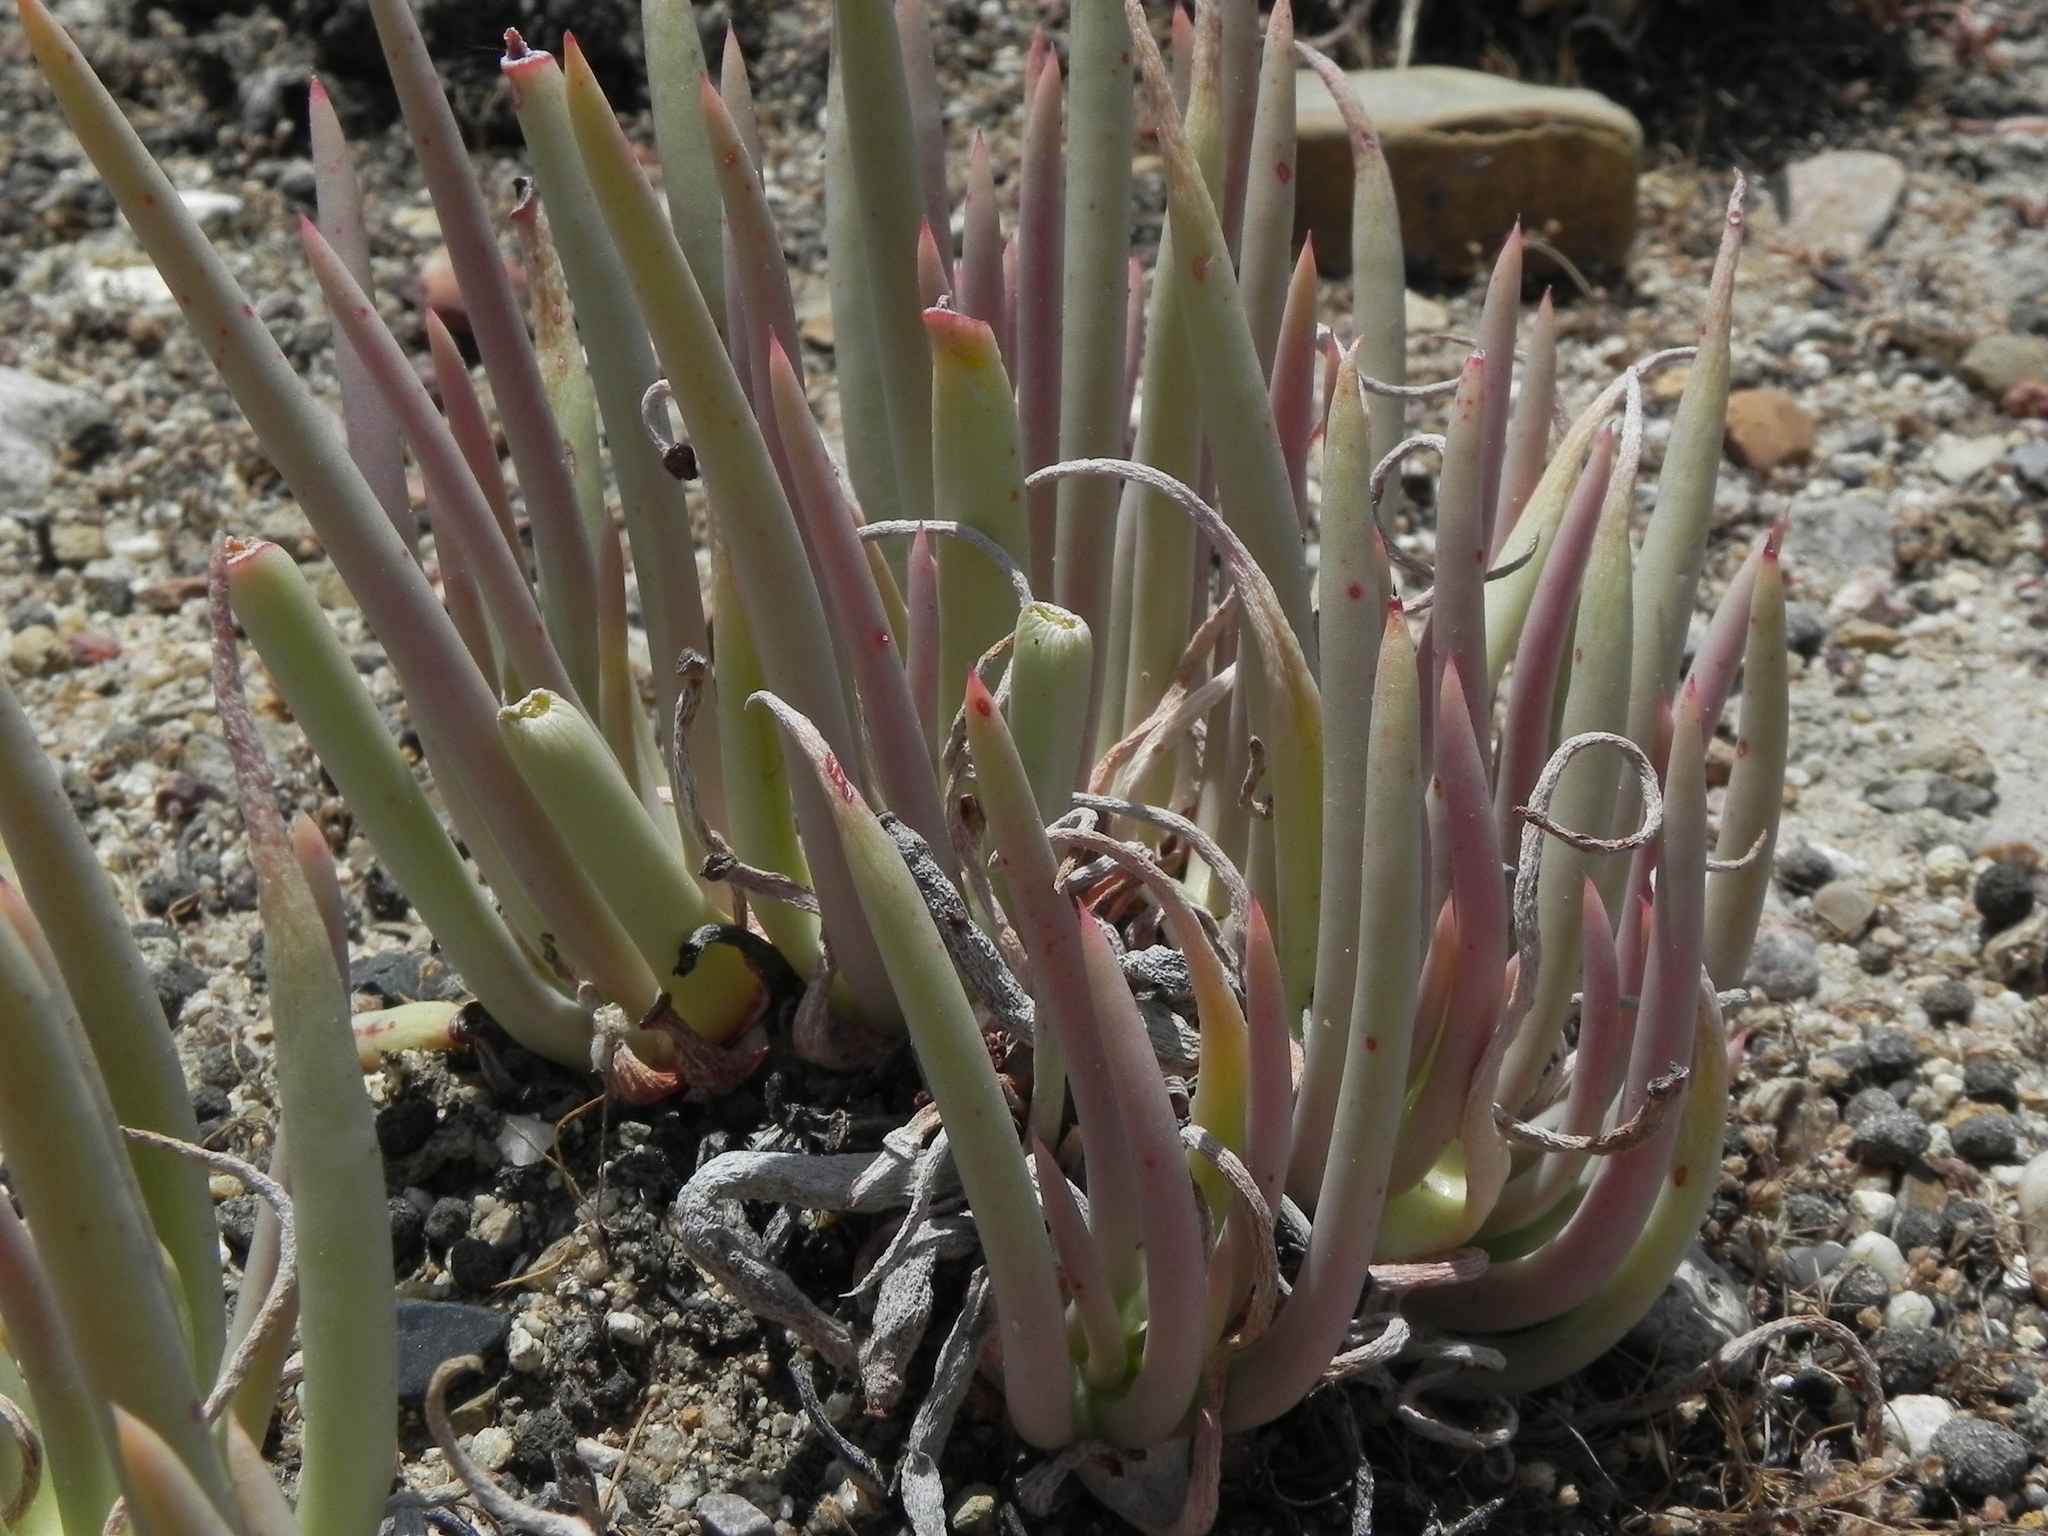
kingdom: Plantae
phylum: Tracheophyta
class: Magnoliopsida
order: Saxifragales
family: Crassulaceae
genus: Dudleya
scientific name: Dudleya edulis
